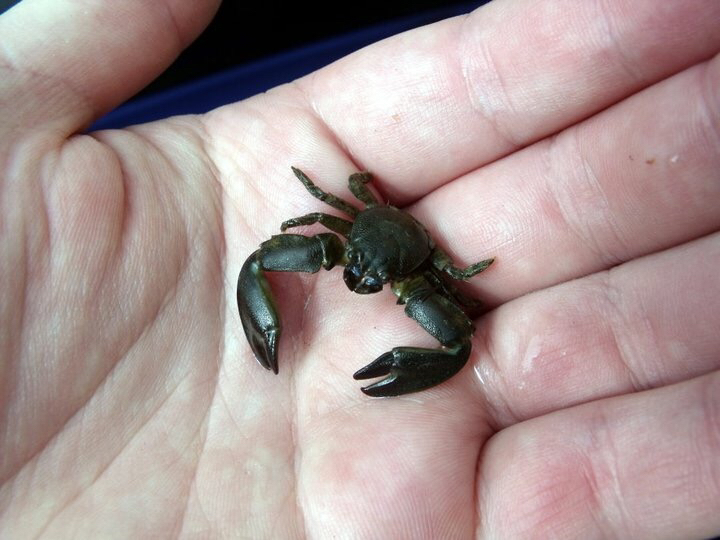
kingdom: Animalia
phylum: Arthropoda
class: Malacostraca
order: Decapoda
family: Porcellanidae
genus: Petrolisthes
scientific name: Petrolisthes elongatus
